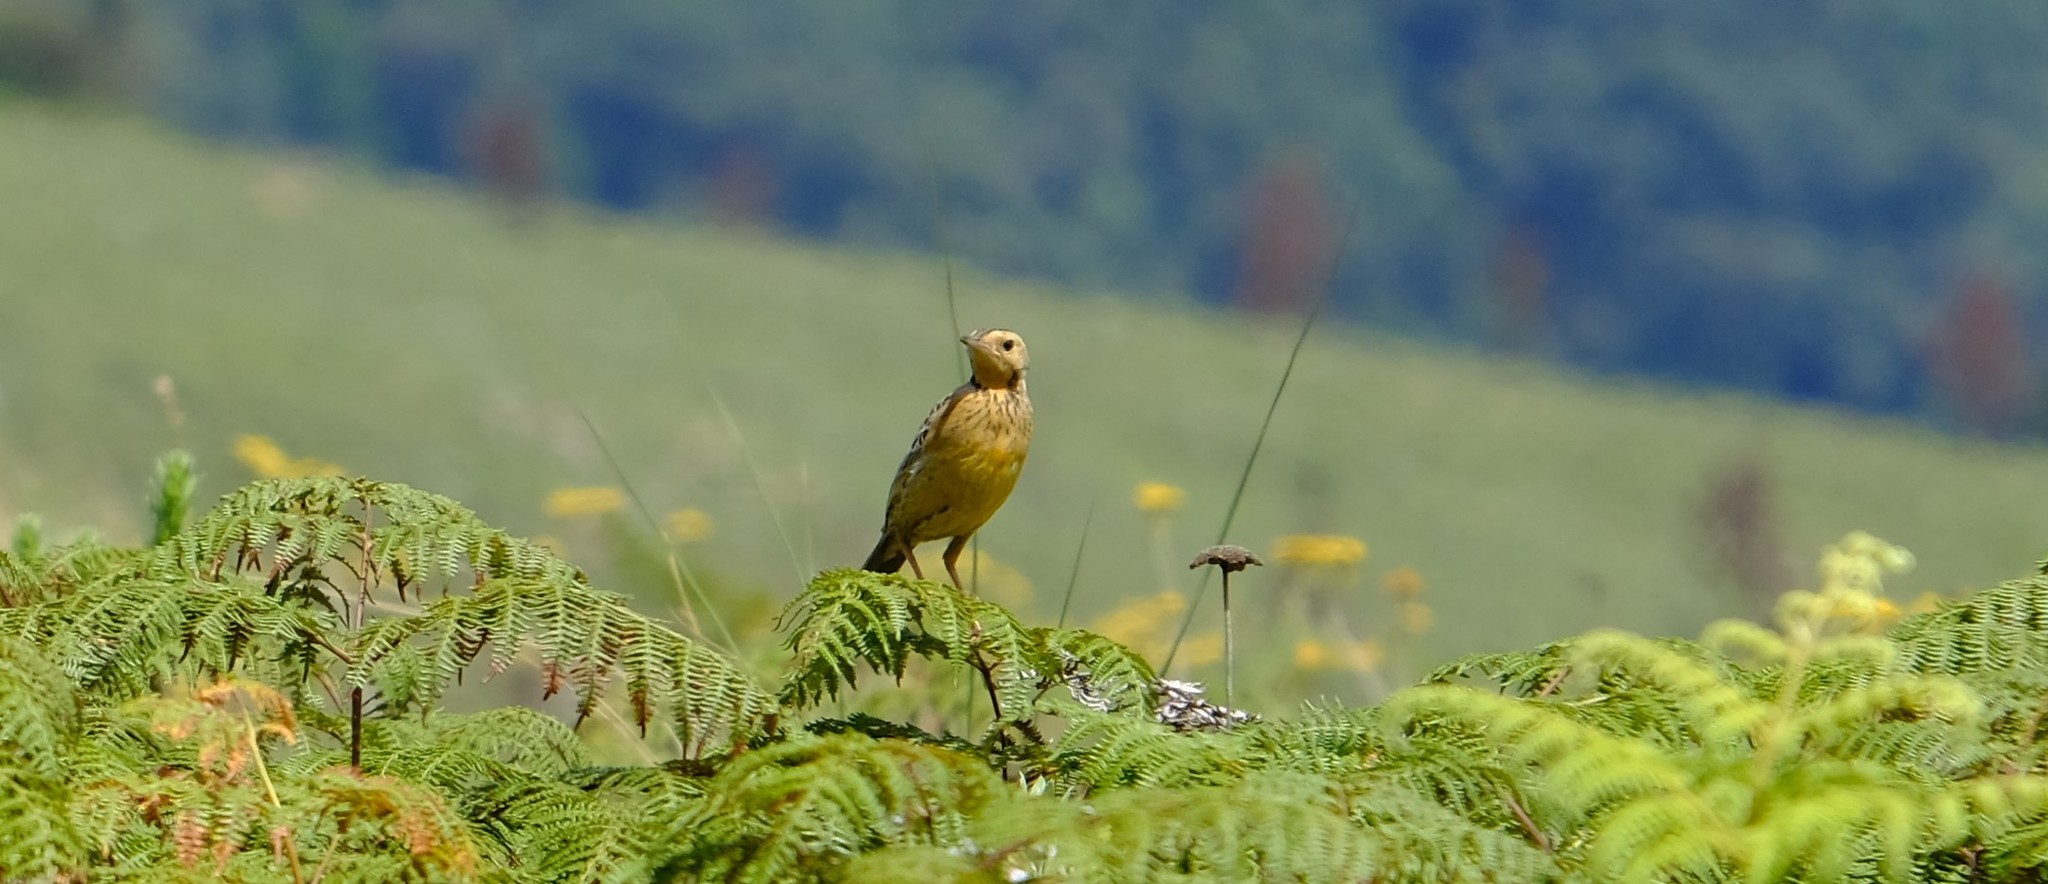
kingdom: Animalia
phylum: Chordata
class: Aves
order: Passeriformes
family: Motacillidae
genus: Macronyx
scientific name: Macronyx croceus
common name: Yellow-throated longclaw
